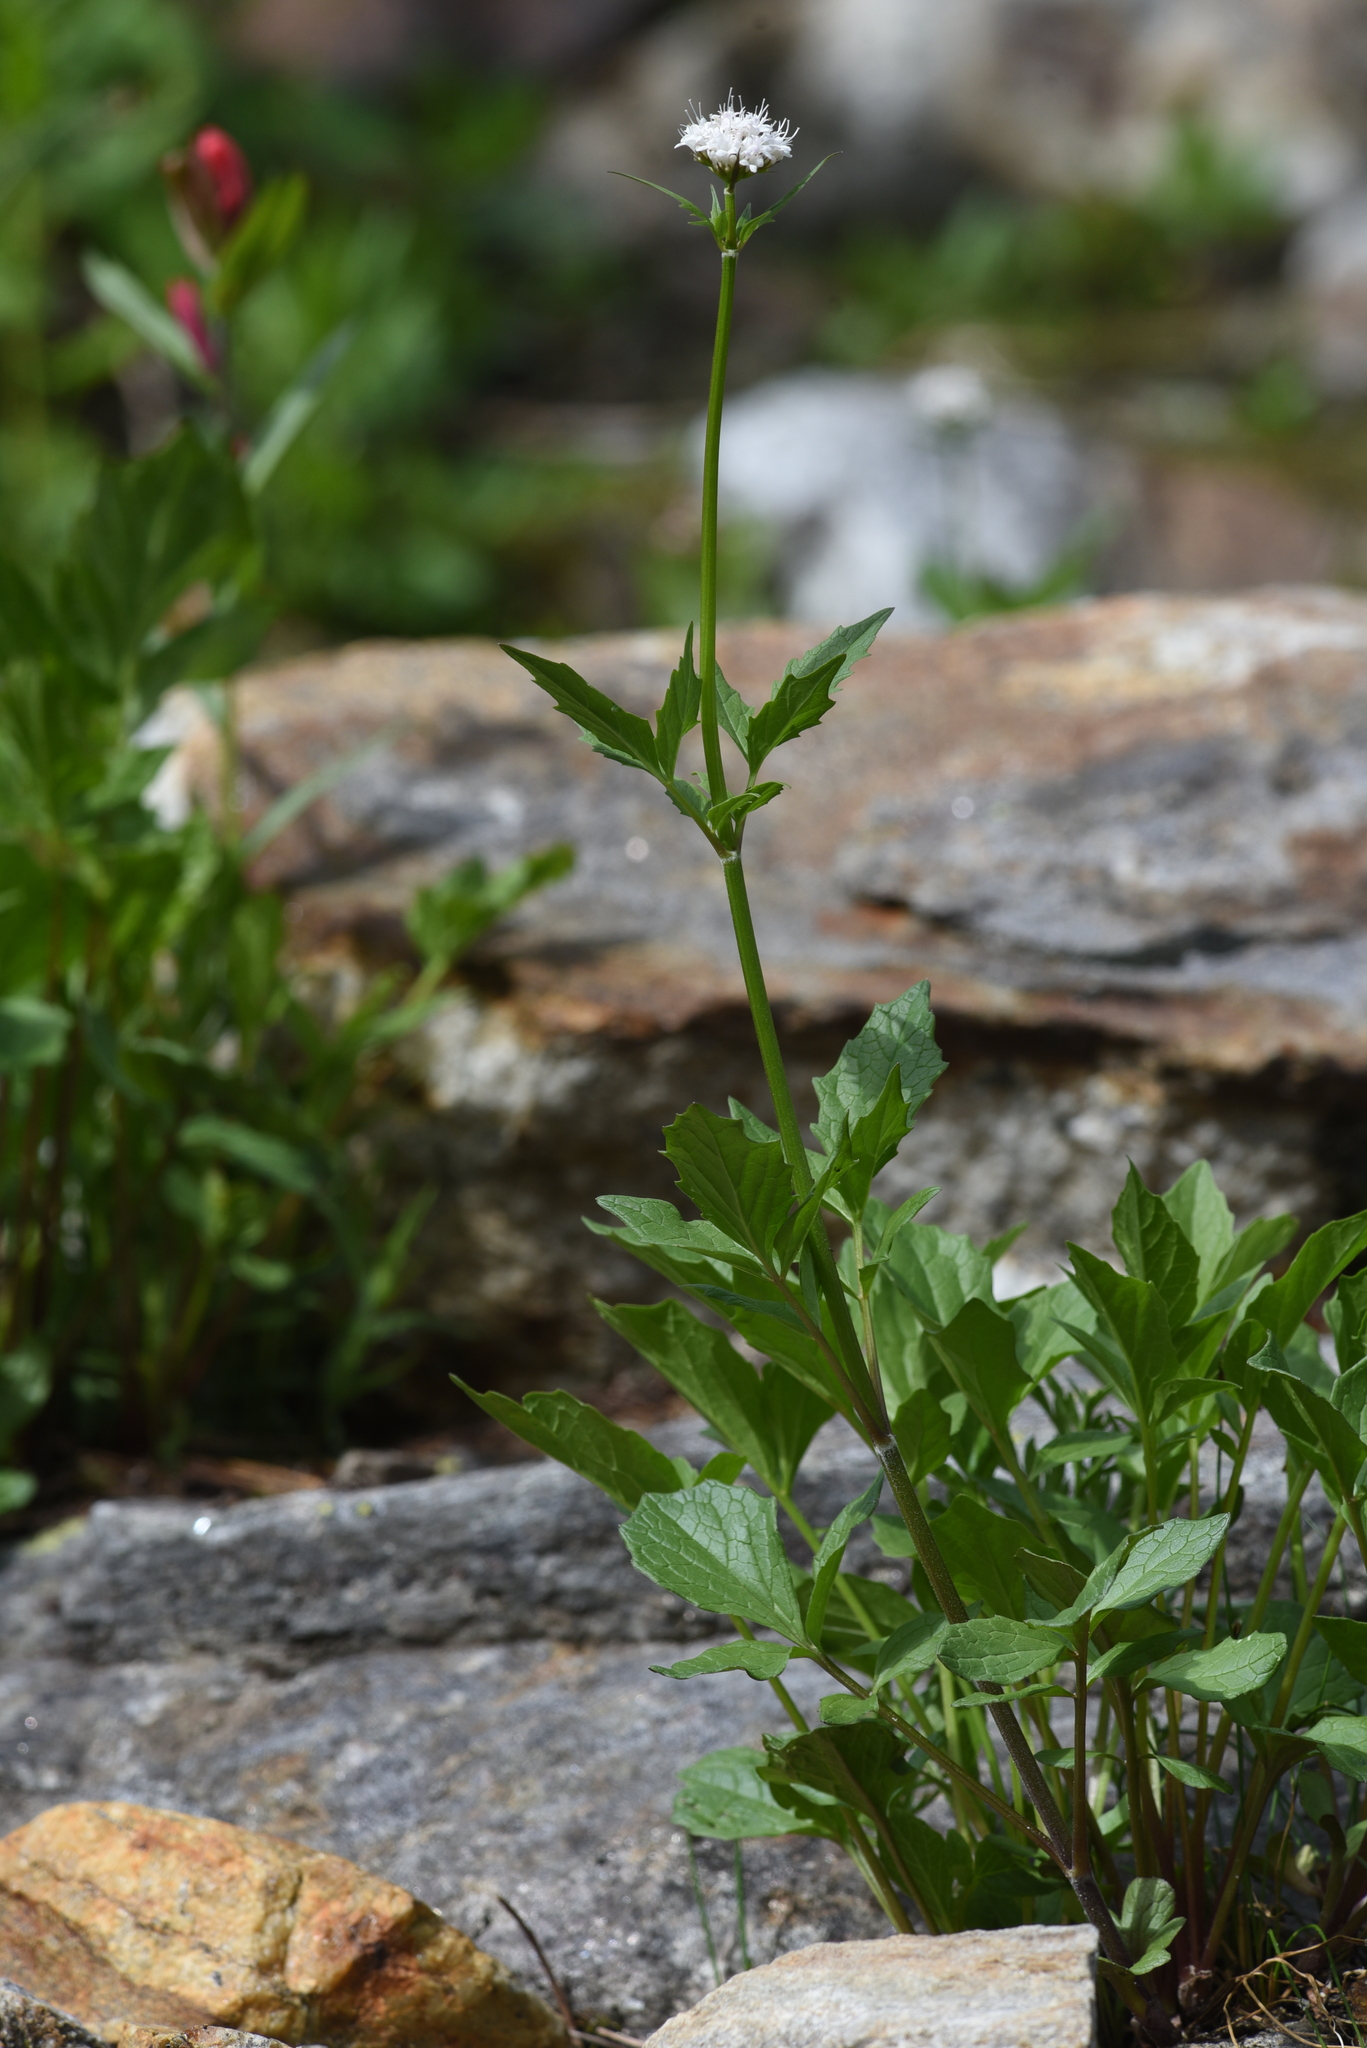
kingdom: Plantae
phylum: Tracheophyta
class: Magnoliopsida
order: Dipsacales
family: Caprifoliaceae
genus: Valeriana
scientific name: Valeriana sitchensis
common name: Pacific valerian
